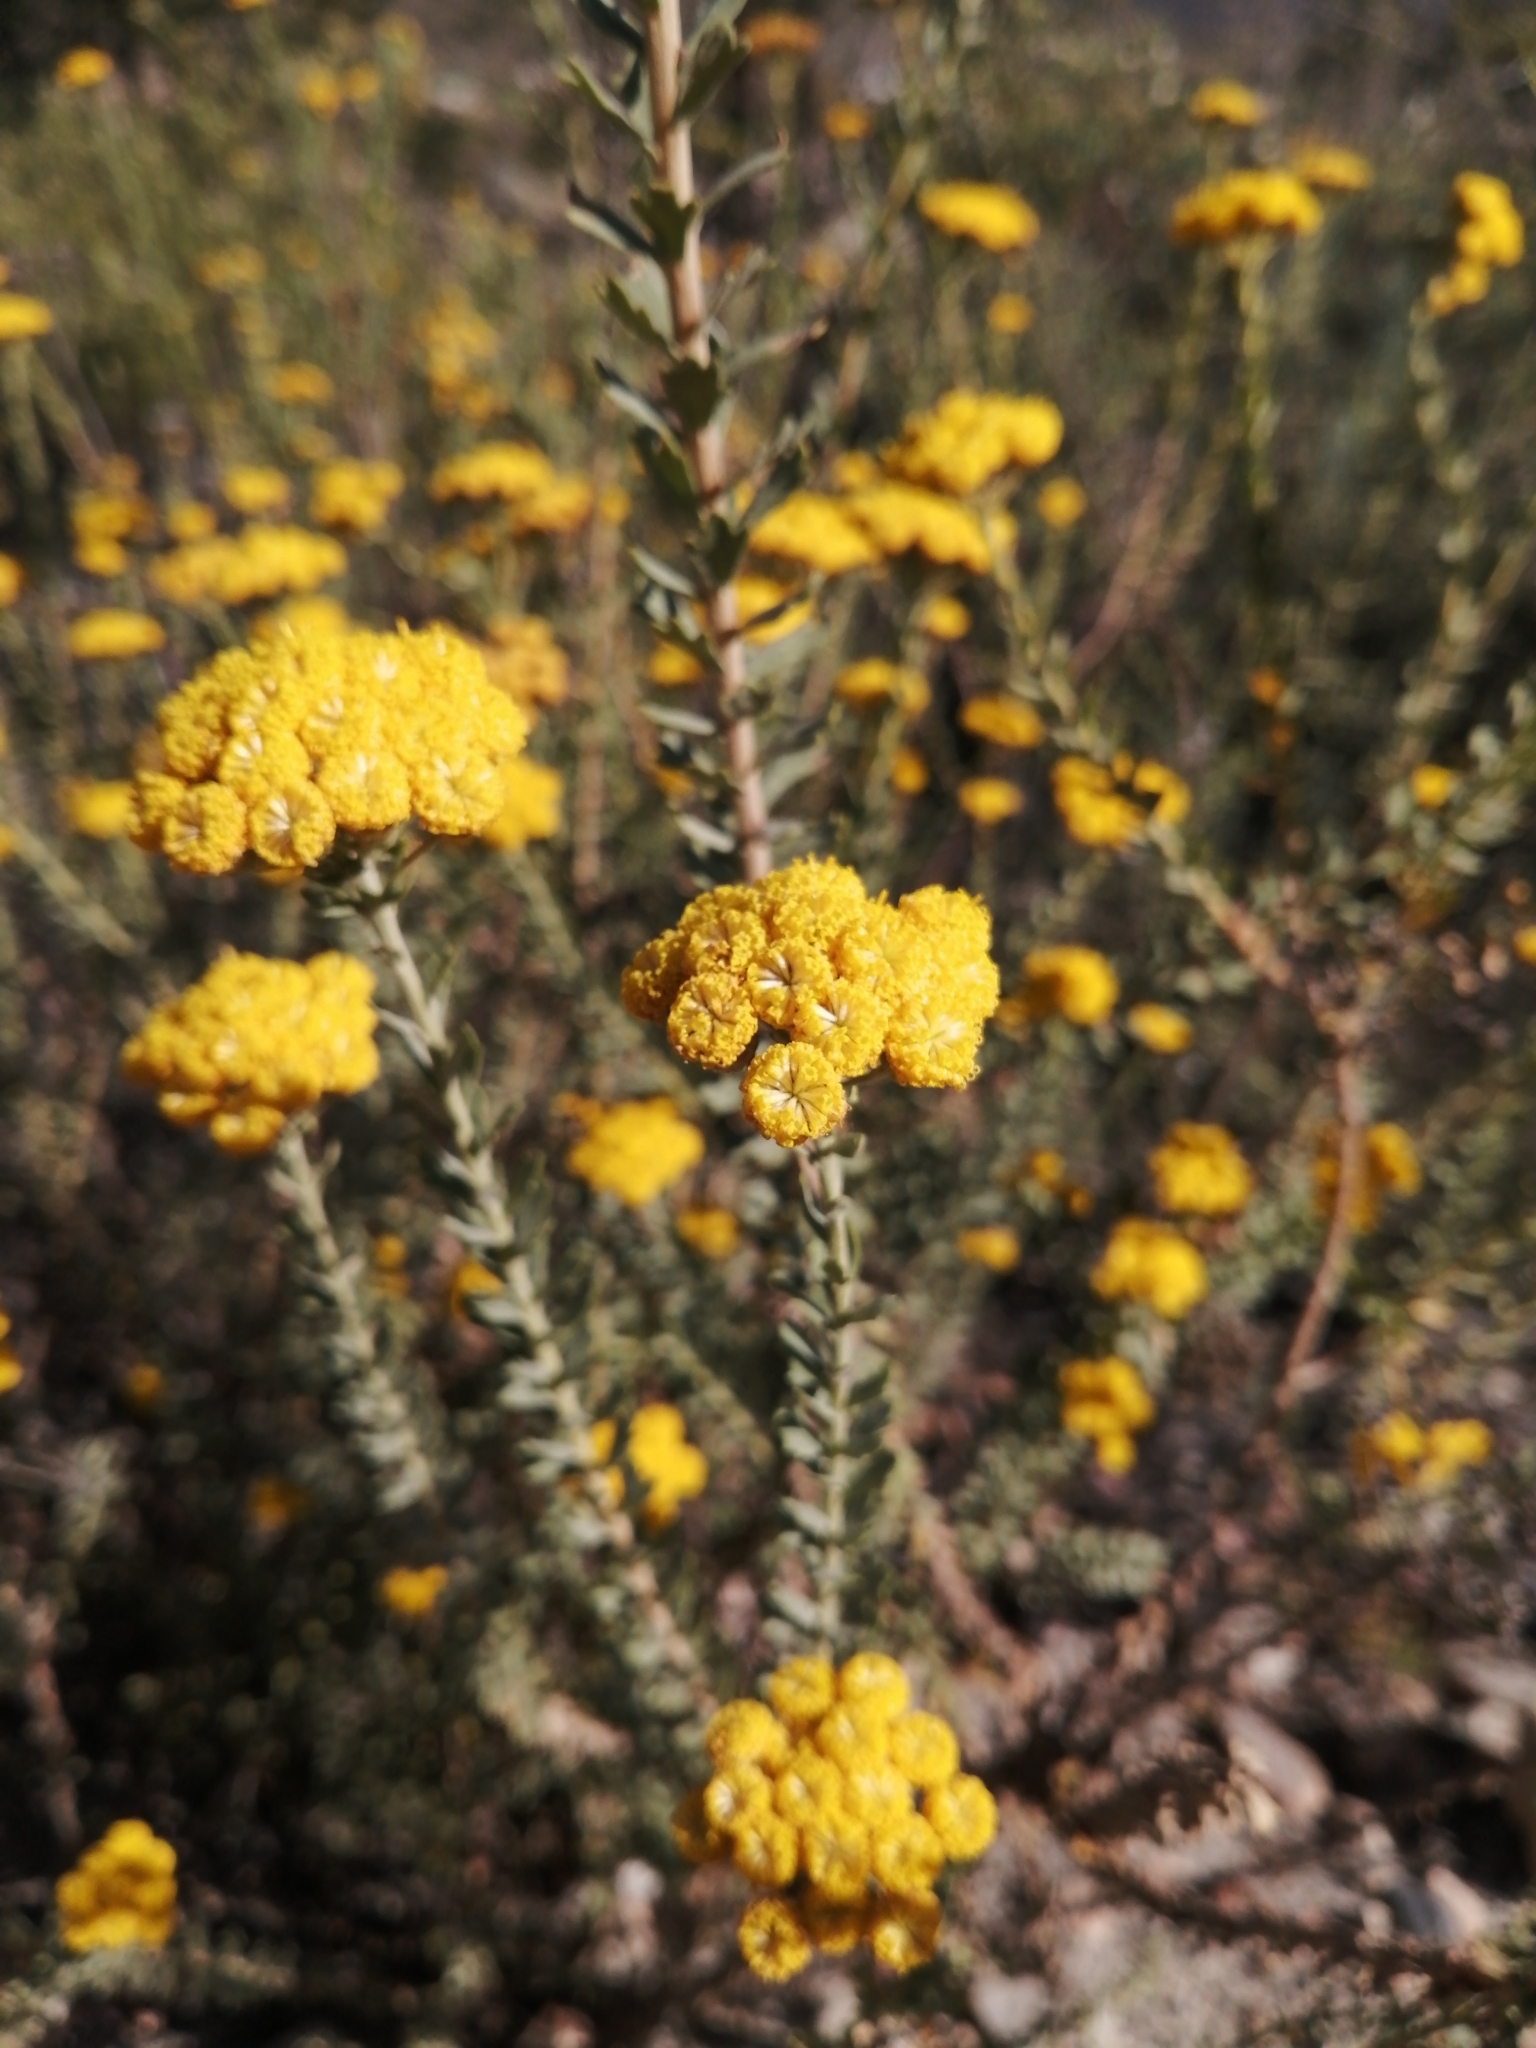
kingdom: Plantae
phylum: Tracheophyta
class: Magnoliopsida
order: Asterales
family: Asteraceae
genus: Athanasia
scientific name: Athanasia trifurcata
